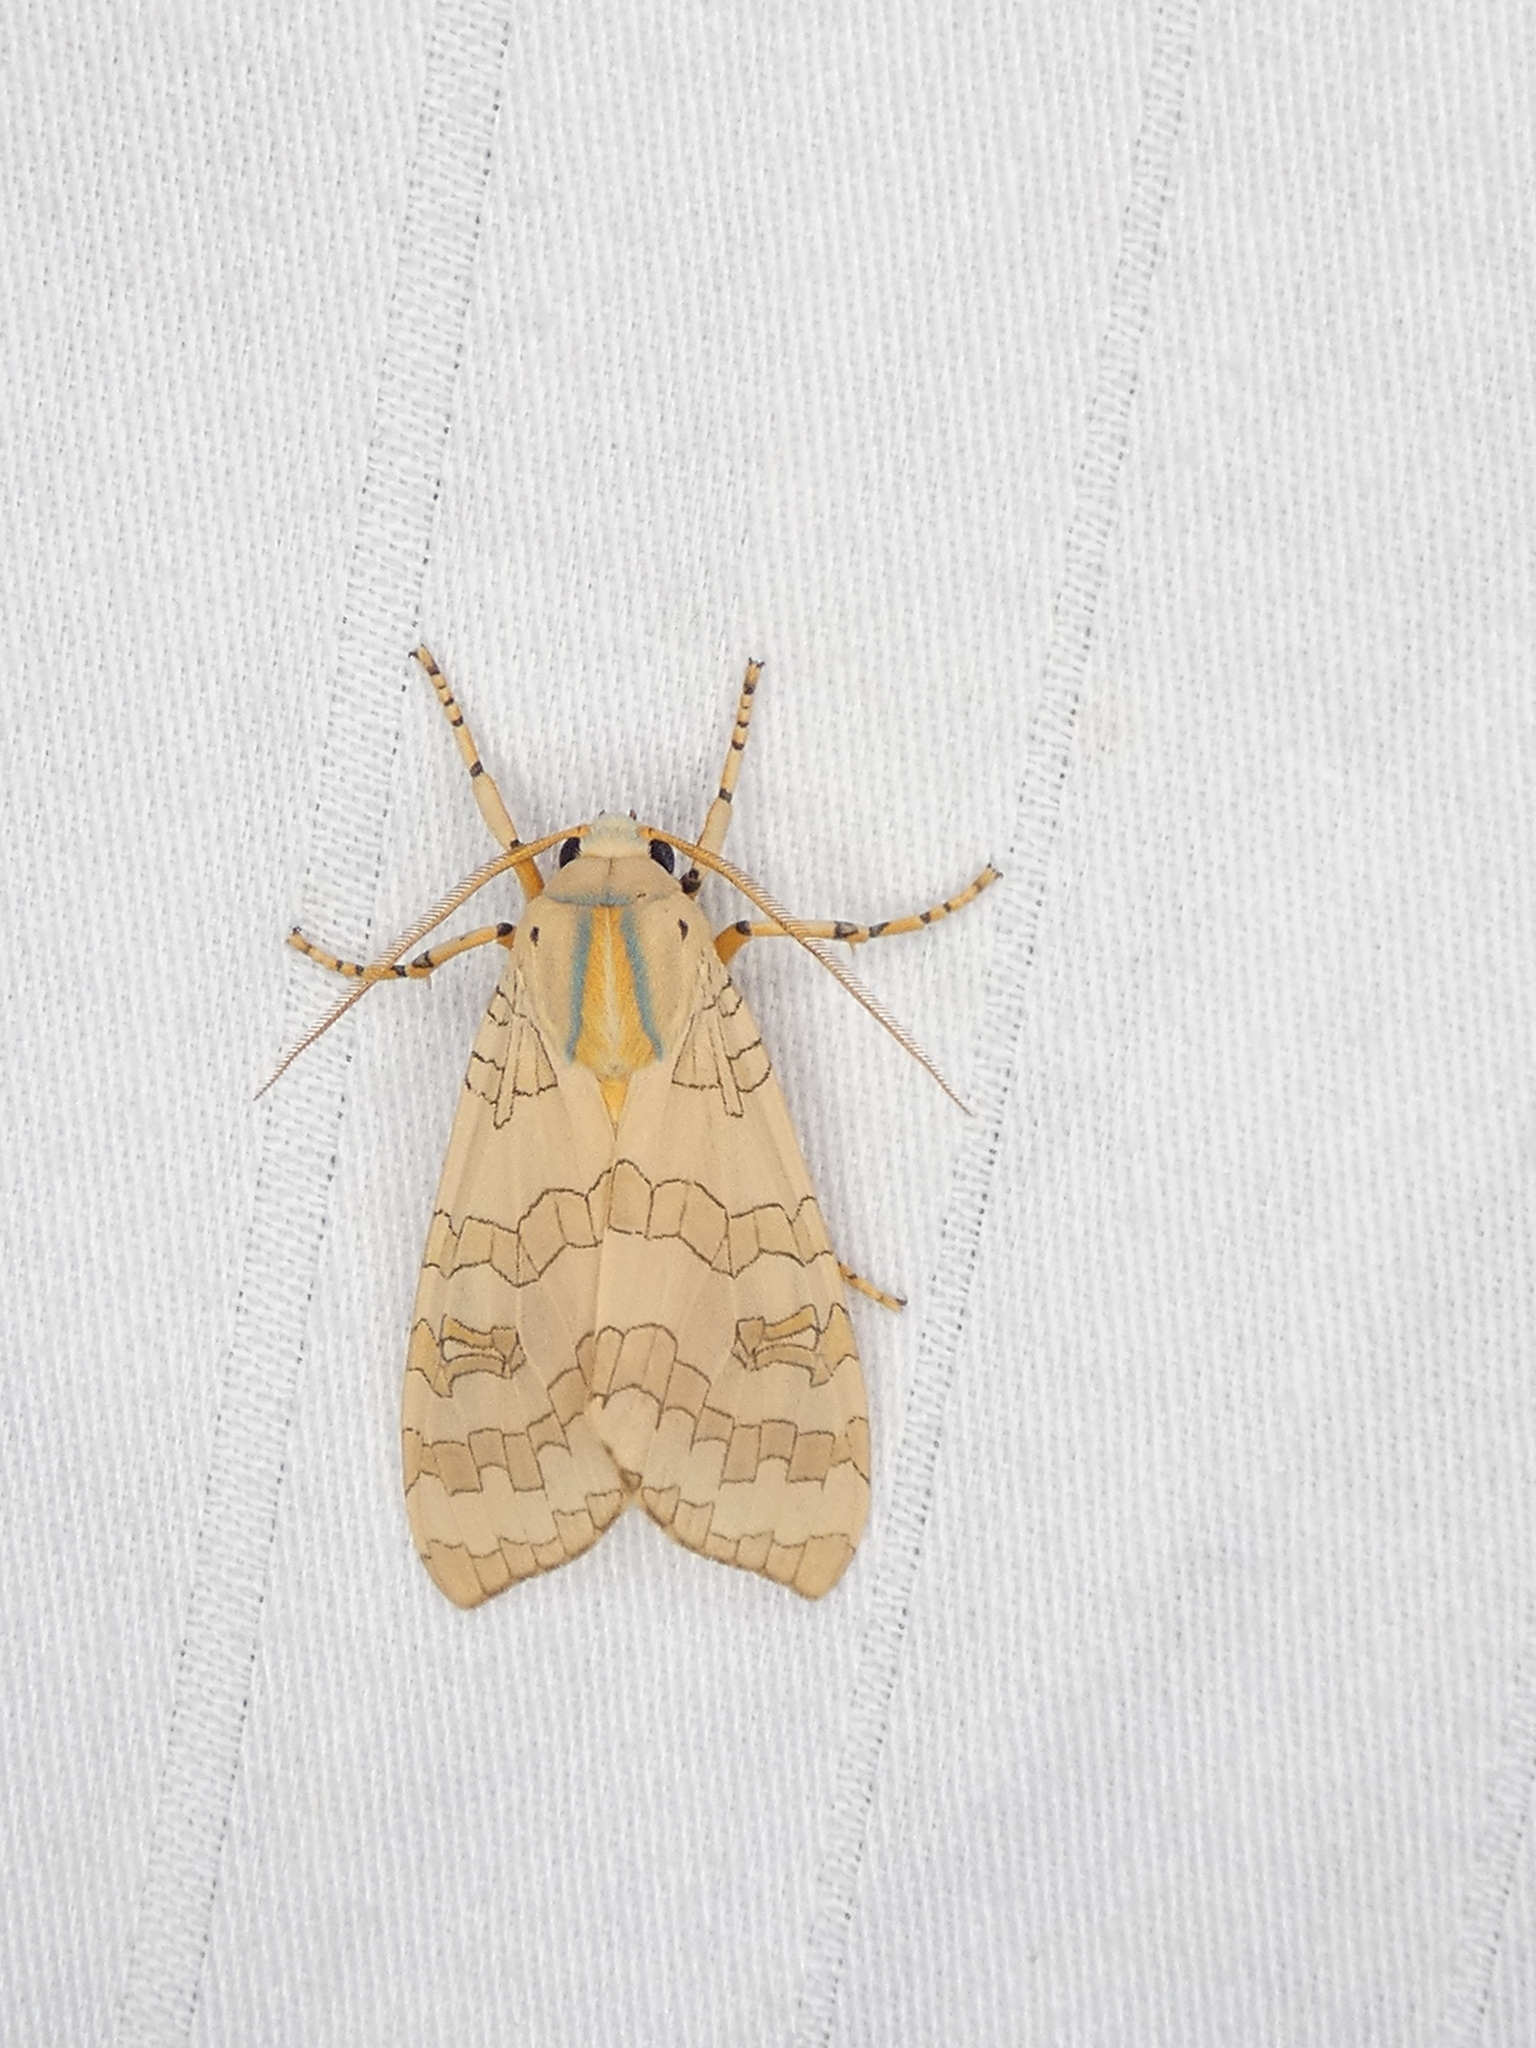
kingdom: Animalia
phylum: Arthropoda
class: Insecta
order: Lepidoptera
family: Erebidae
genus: Halysidota
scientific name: Halysidota
